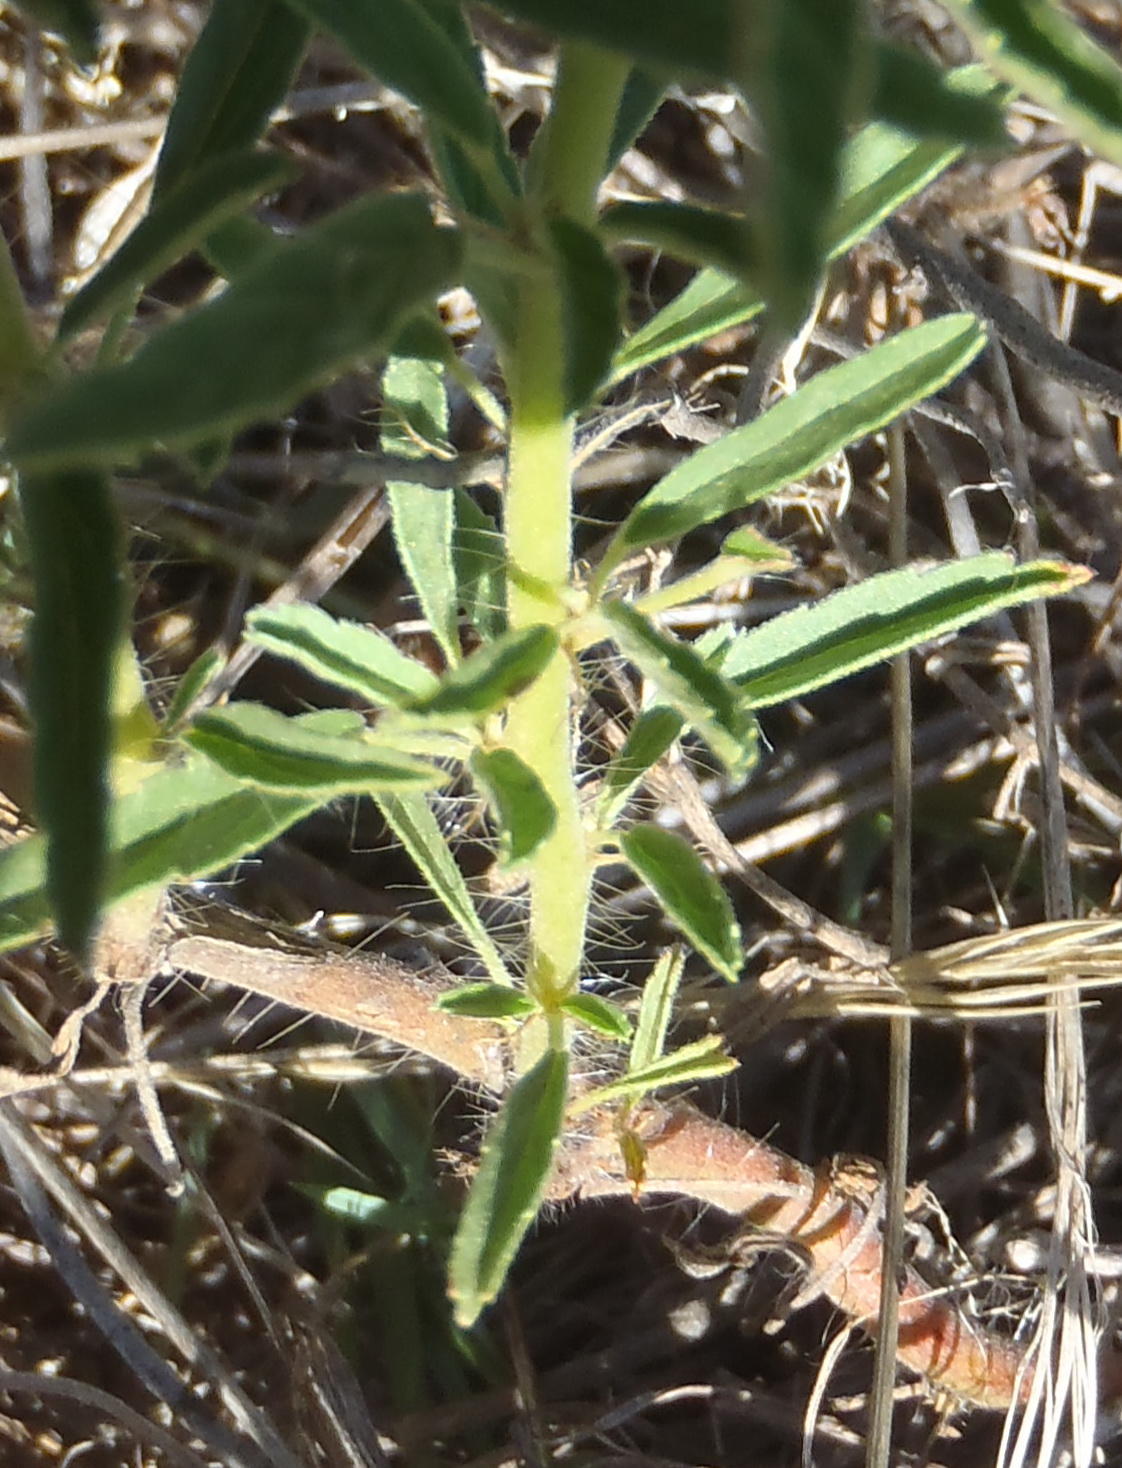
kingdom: Plantae
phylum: Tracheophyta
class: Magnoliopsida
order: Geraniales
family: Geraniaceae
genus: Monsonia
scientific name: Monsonia biflora
